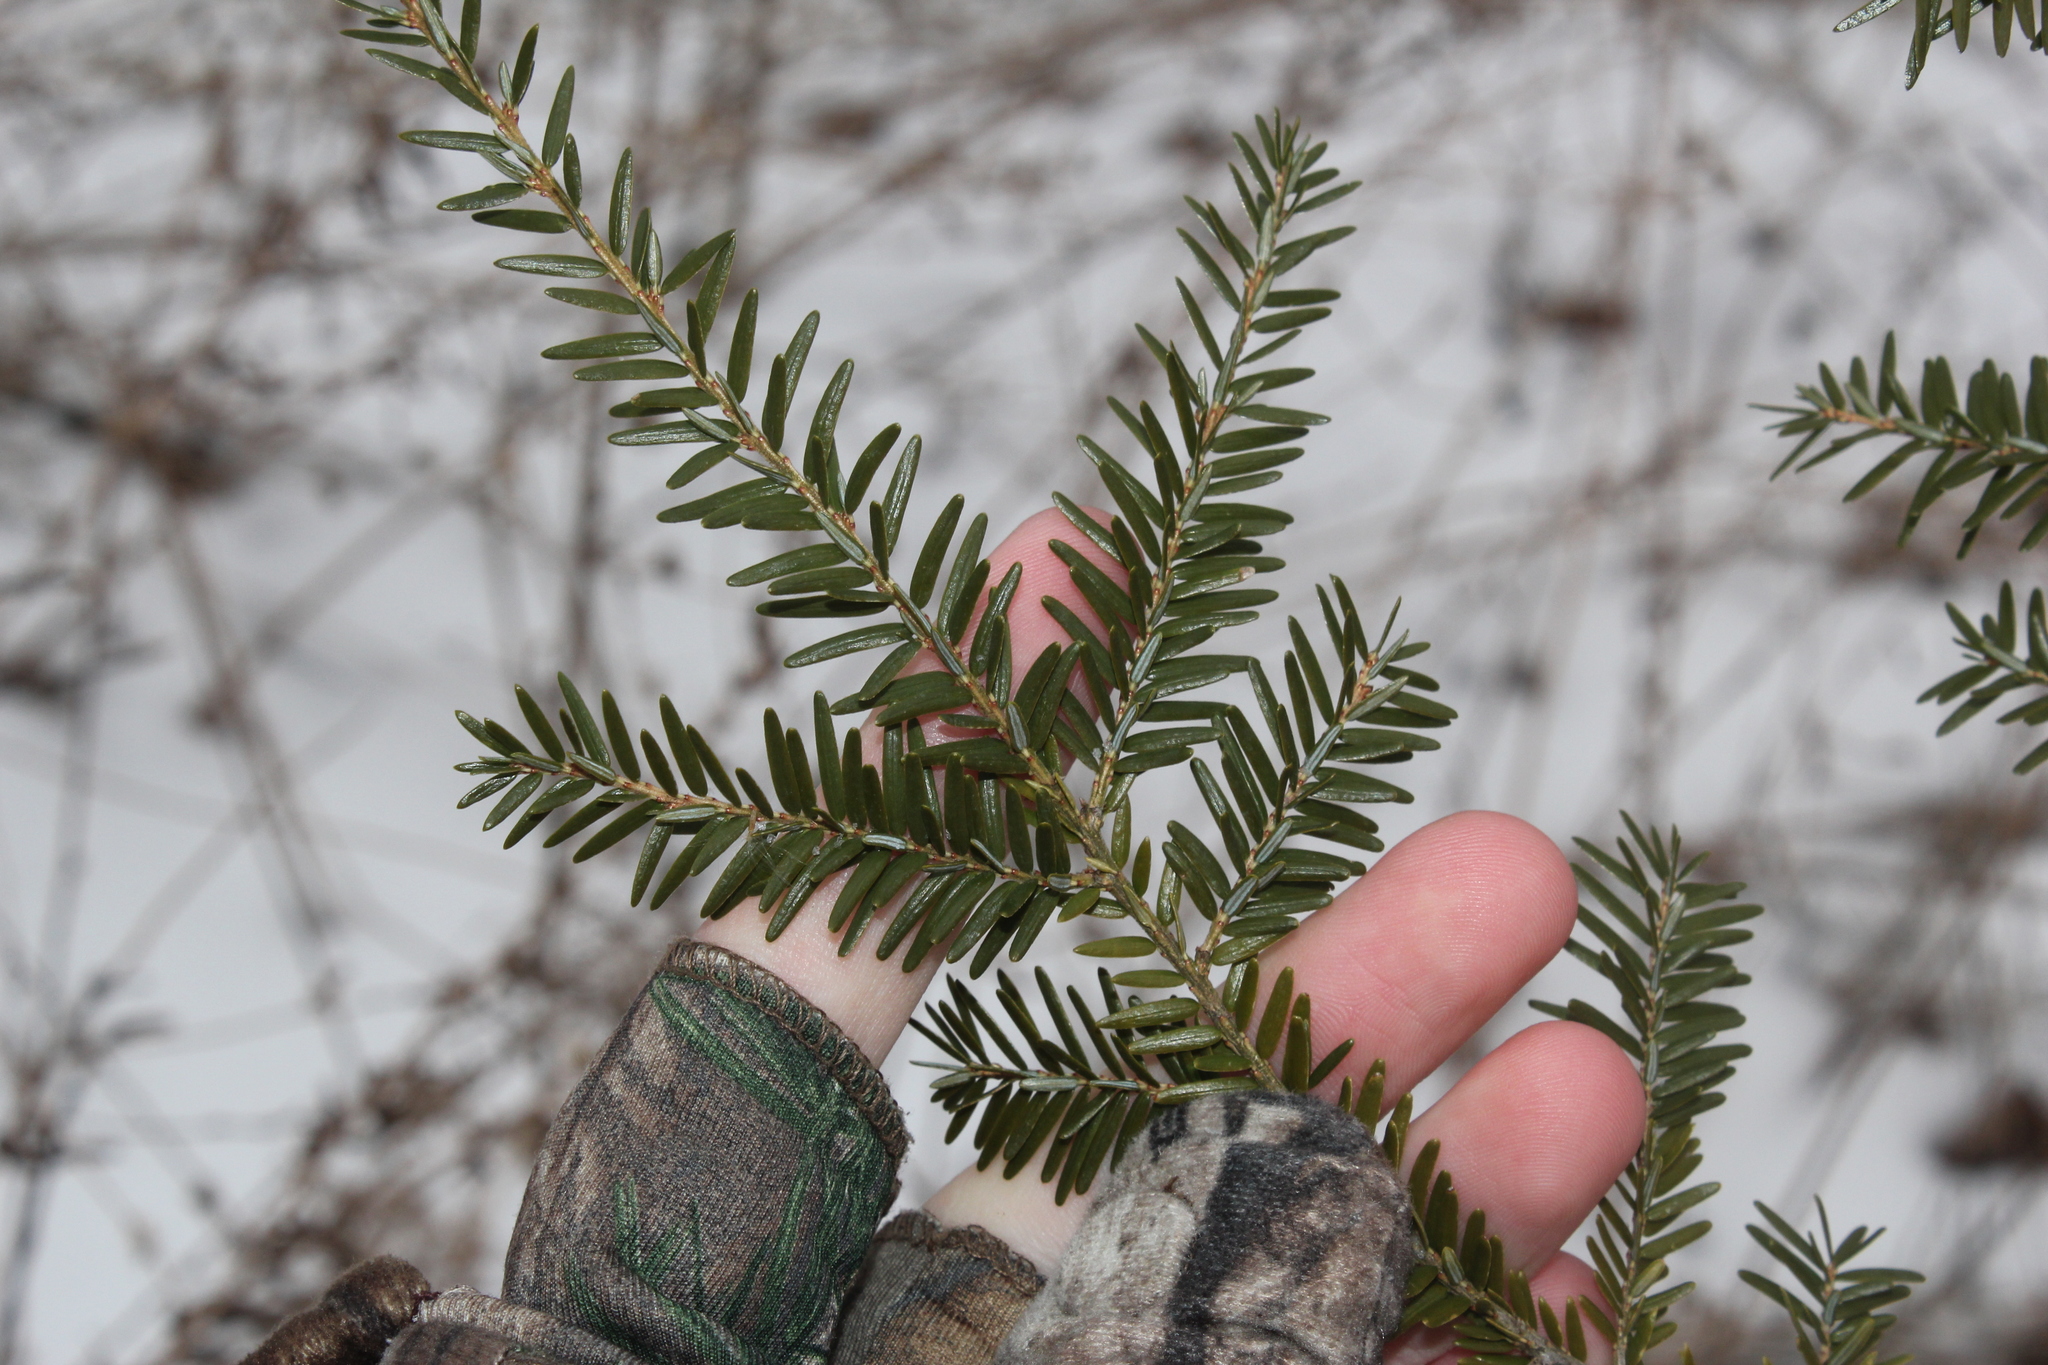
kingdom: Plantae
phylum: Tracheophyta
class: Pinopsida
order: Pinales
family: Pinaceae
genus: Tsuga
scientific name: Tsuga canadensis
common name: Eastern hemlock
